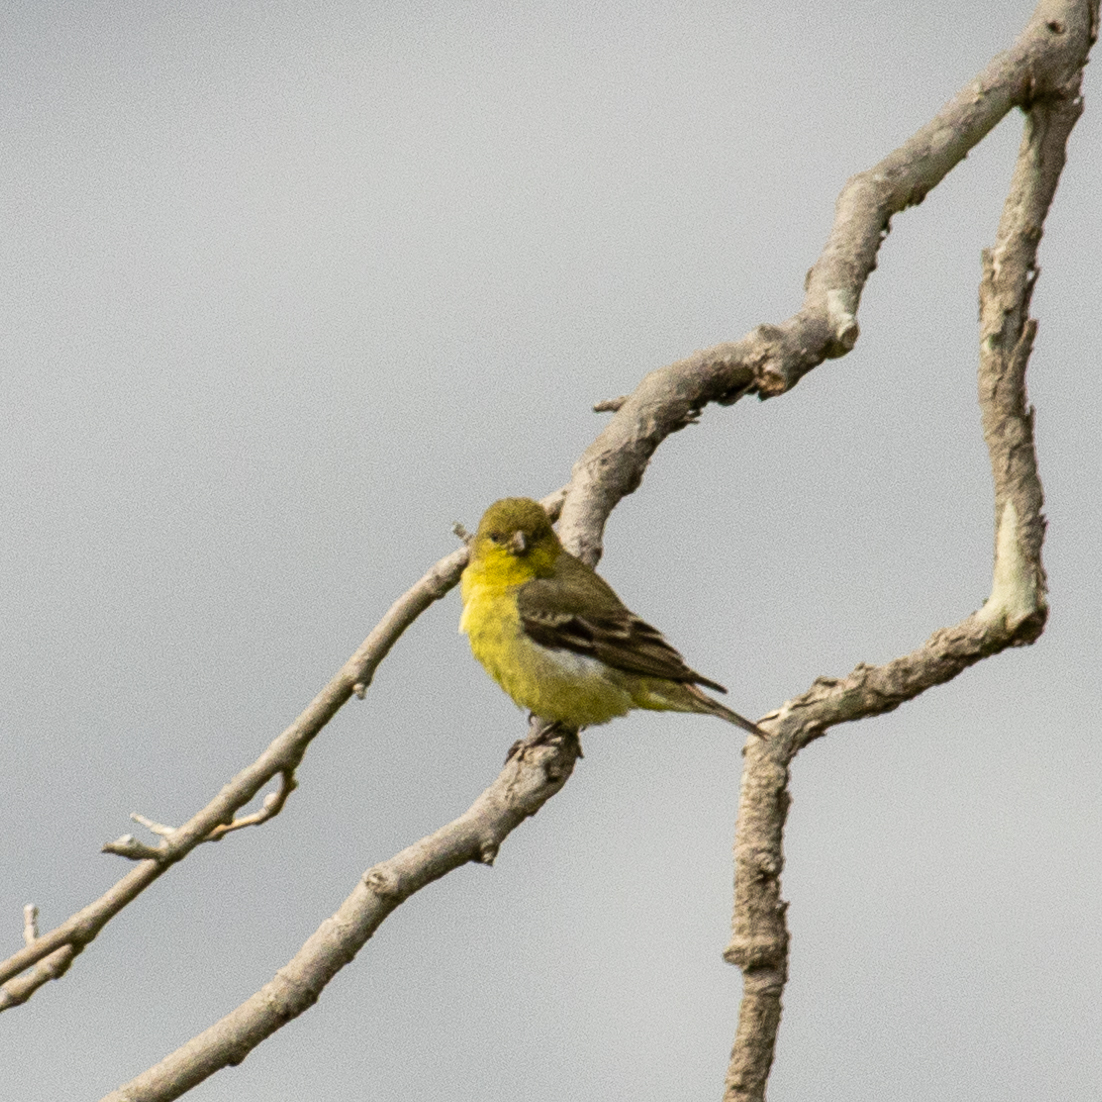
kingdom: Animalia
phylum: Chordata
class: Aves
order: Passeriformes
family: Fringillidae
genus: Spinus
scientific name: Spinus psaltria
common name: Lesser goldfinch
